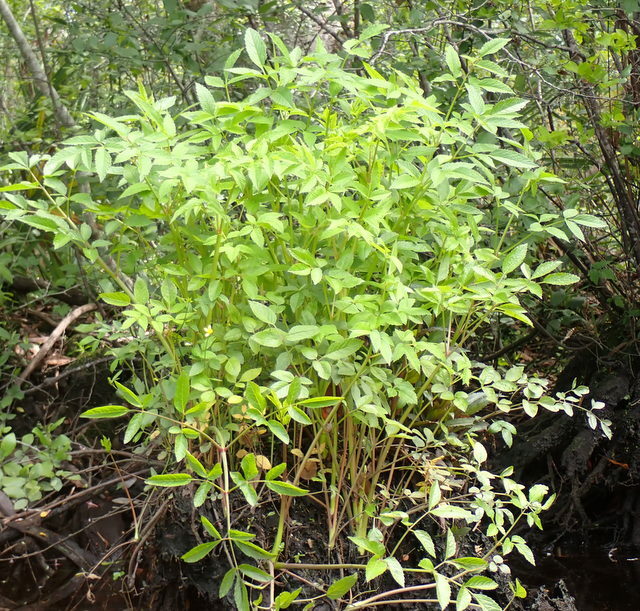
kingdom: Plantae
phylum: Tracheophyta
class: Magnoliopsida
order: Apiales
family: Apiaceae
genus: Cicuta
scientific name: Cicuta maculata
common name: Spotted cowbane
